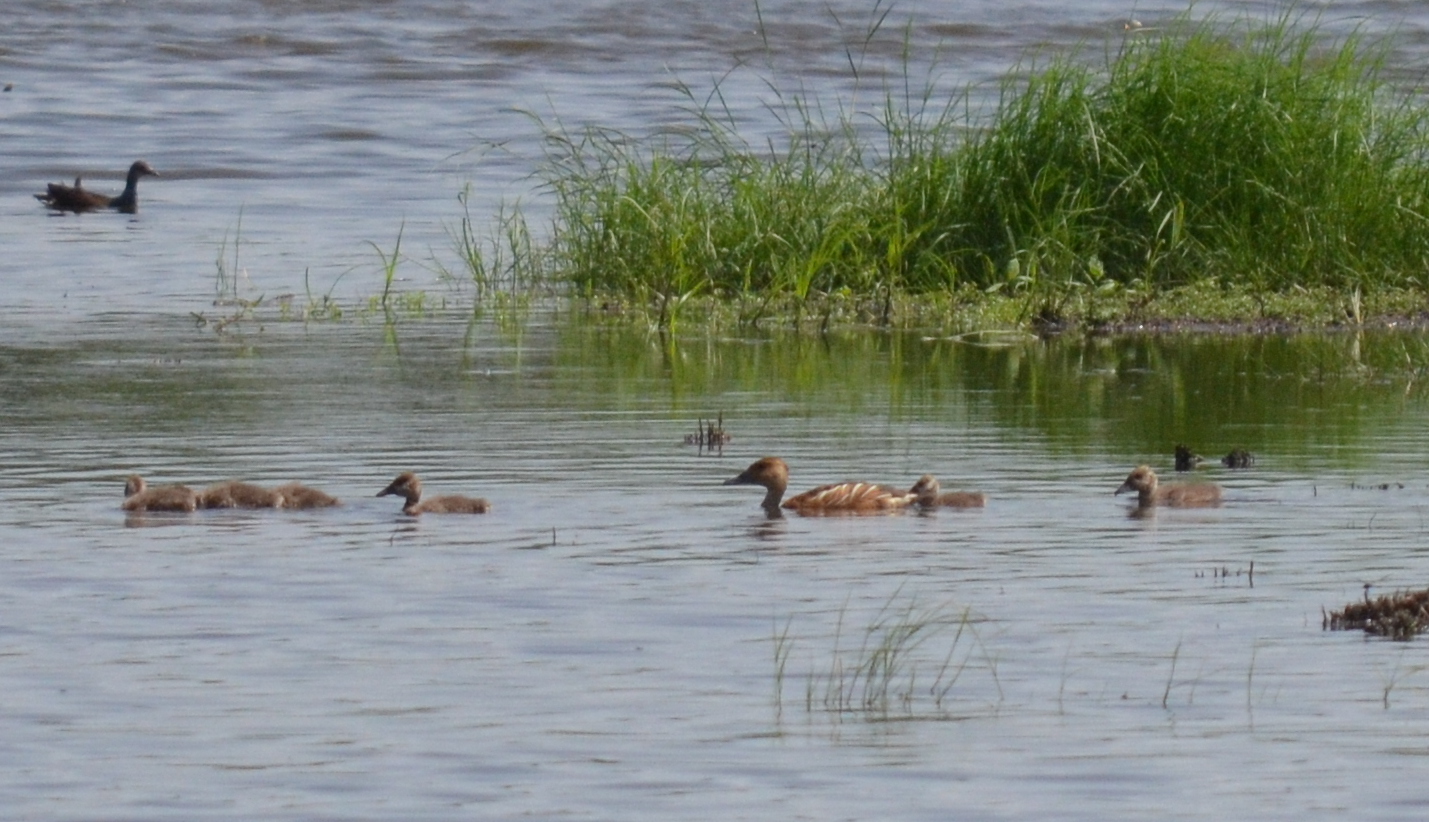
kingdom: Animalia
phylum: Chordata
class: Aves
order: Anseriformes
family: Anatidae
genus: Dendrocygna
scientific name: Dendrocygna bicolor
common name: Fulvous whistling duck
